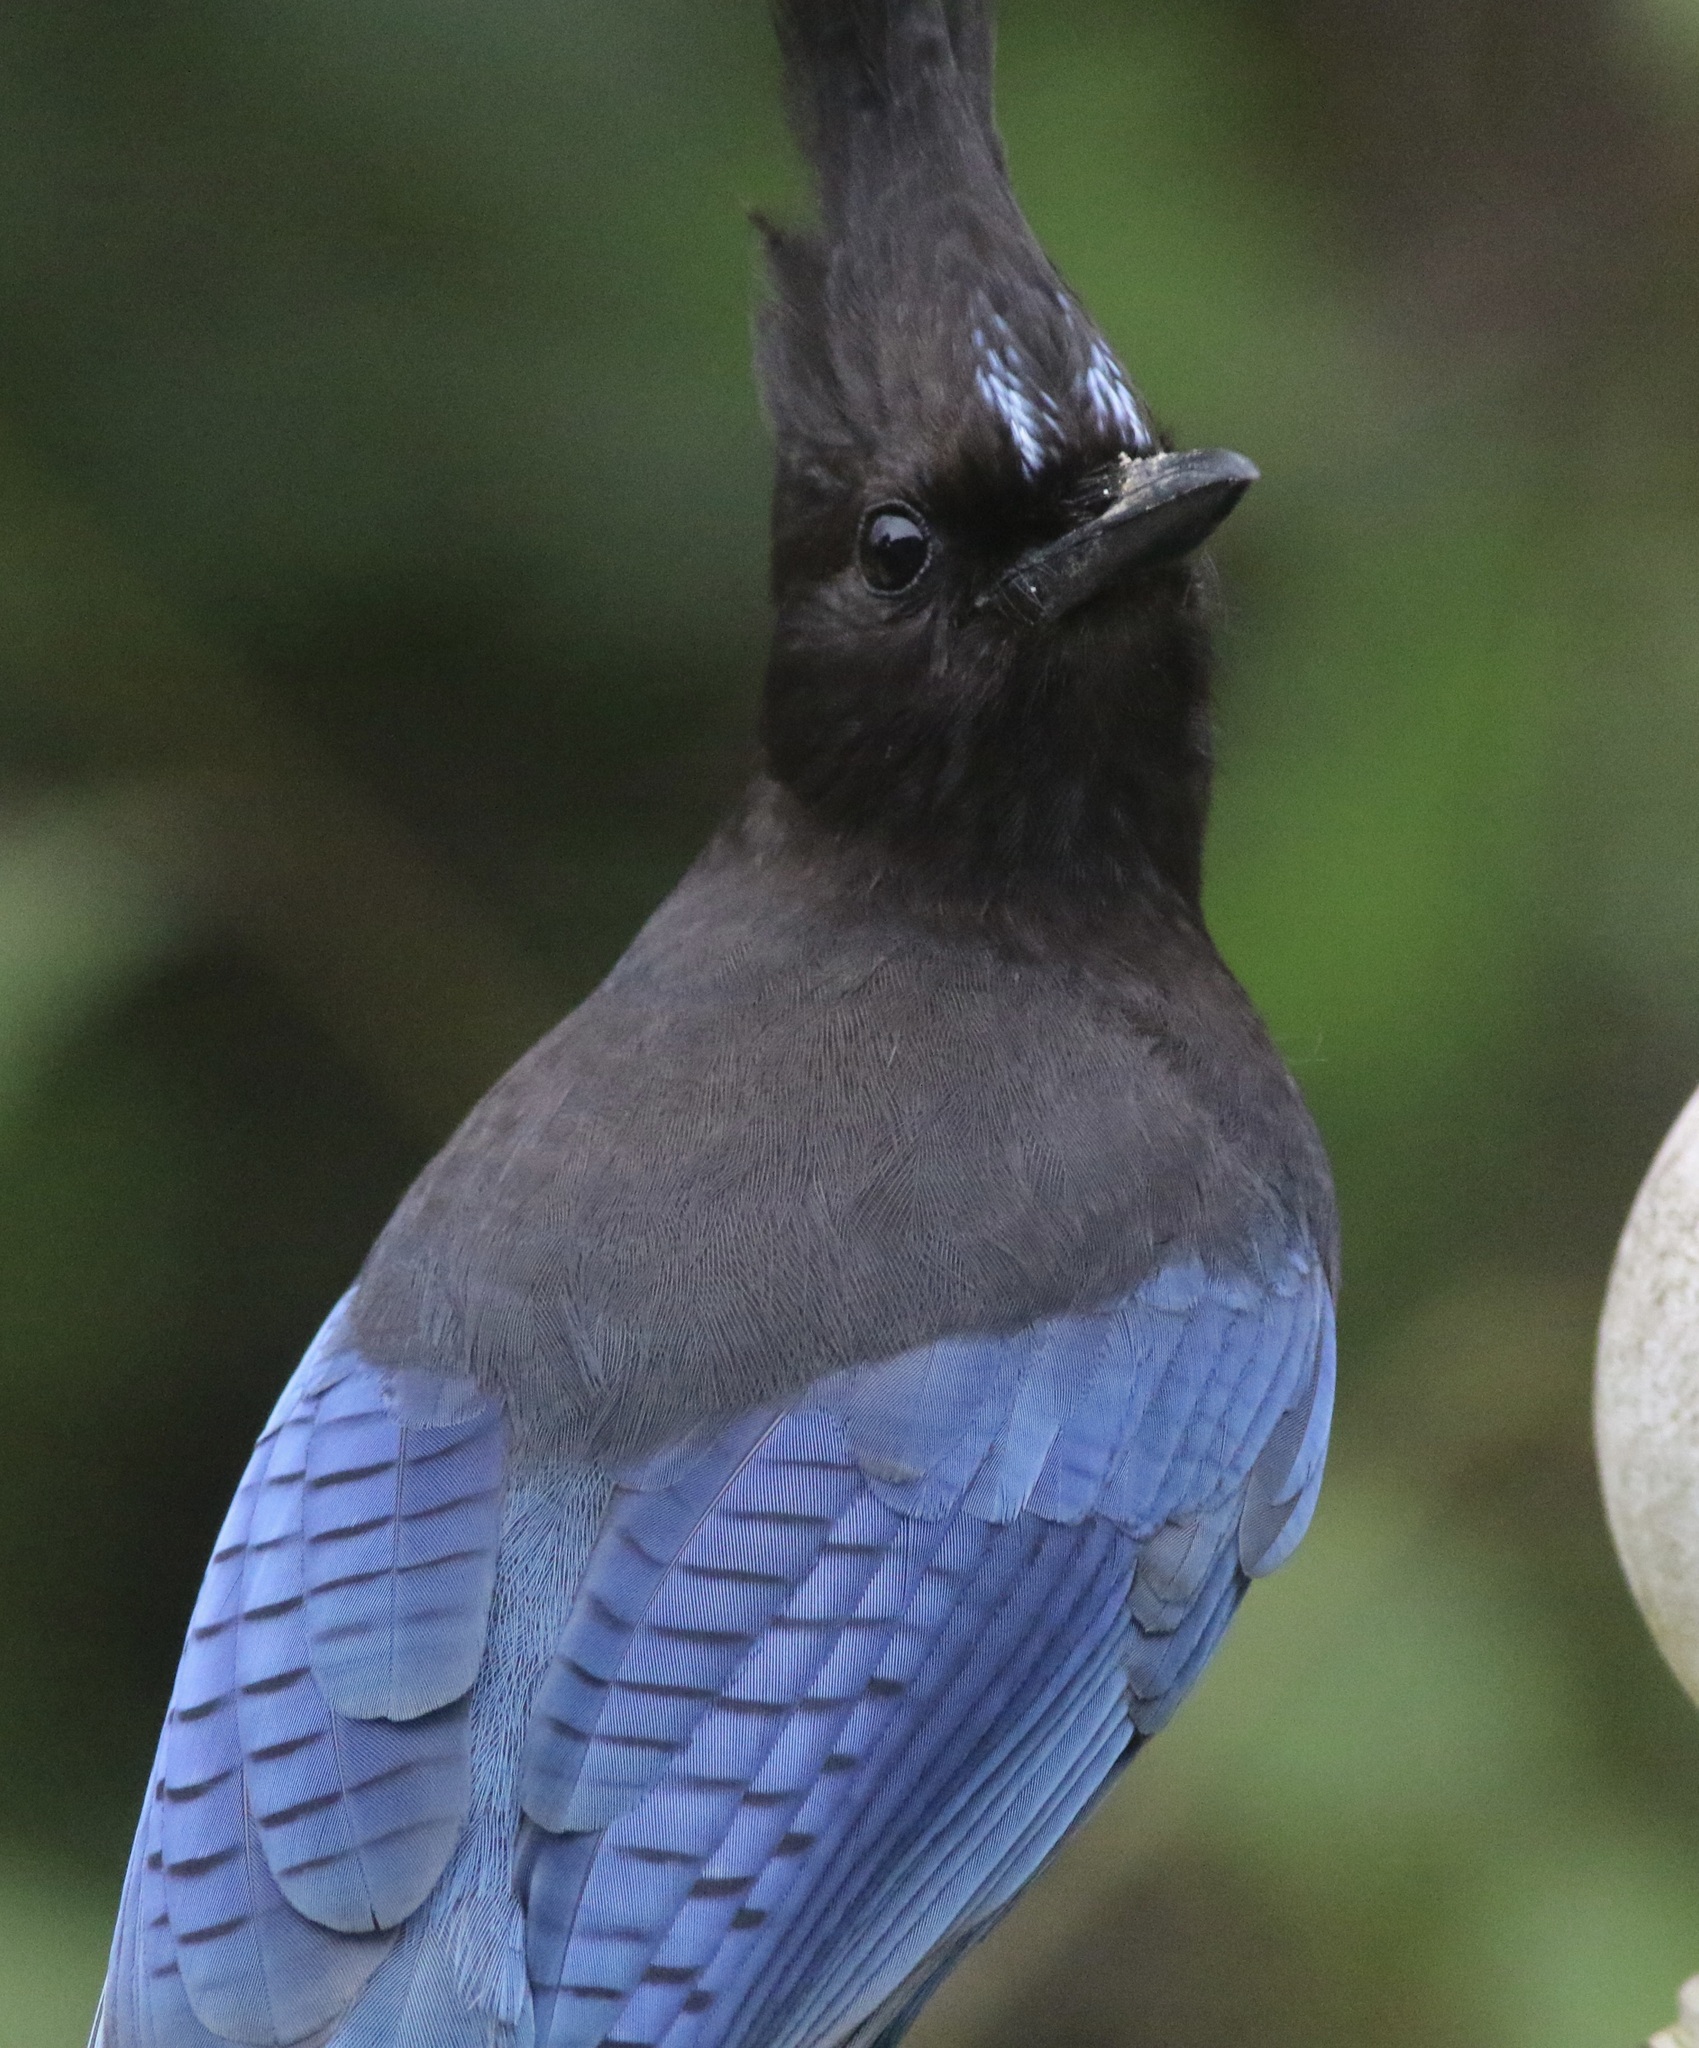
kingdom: Animalia
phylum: Chordata
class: Aves
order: Passeriformes
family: Corvidae
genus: Cyanocitta
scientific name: Cyanocitta stelleri
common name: Steller's jay
